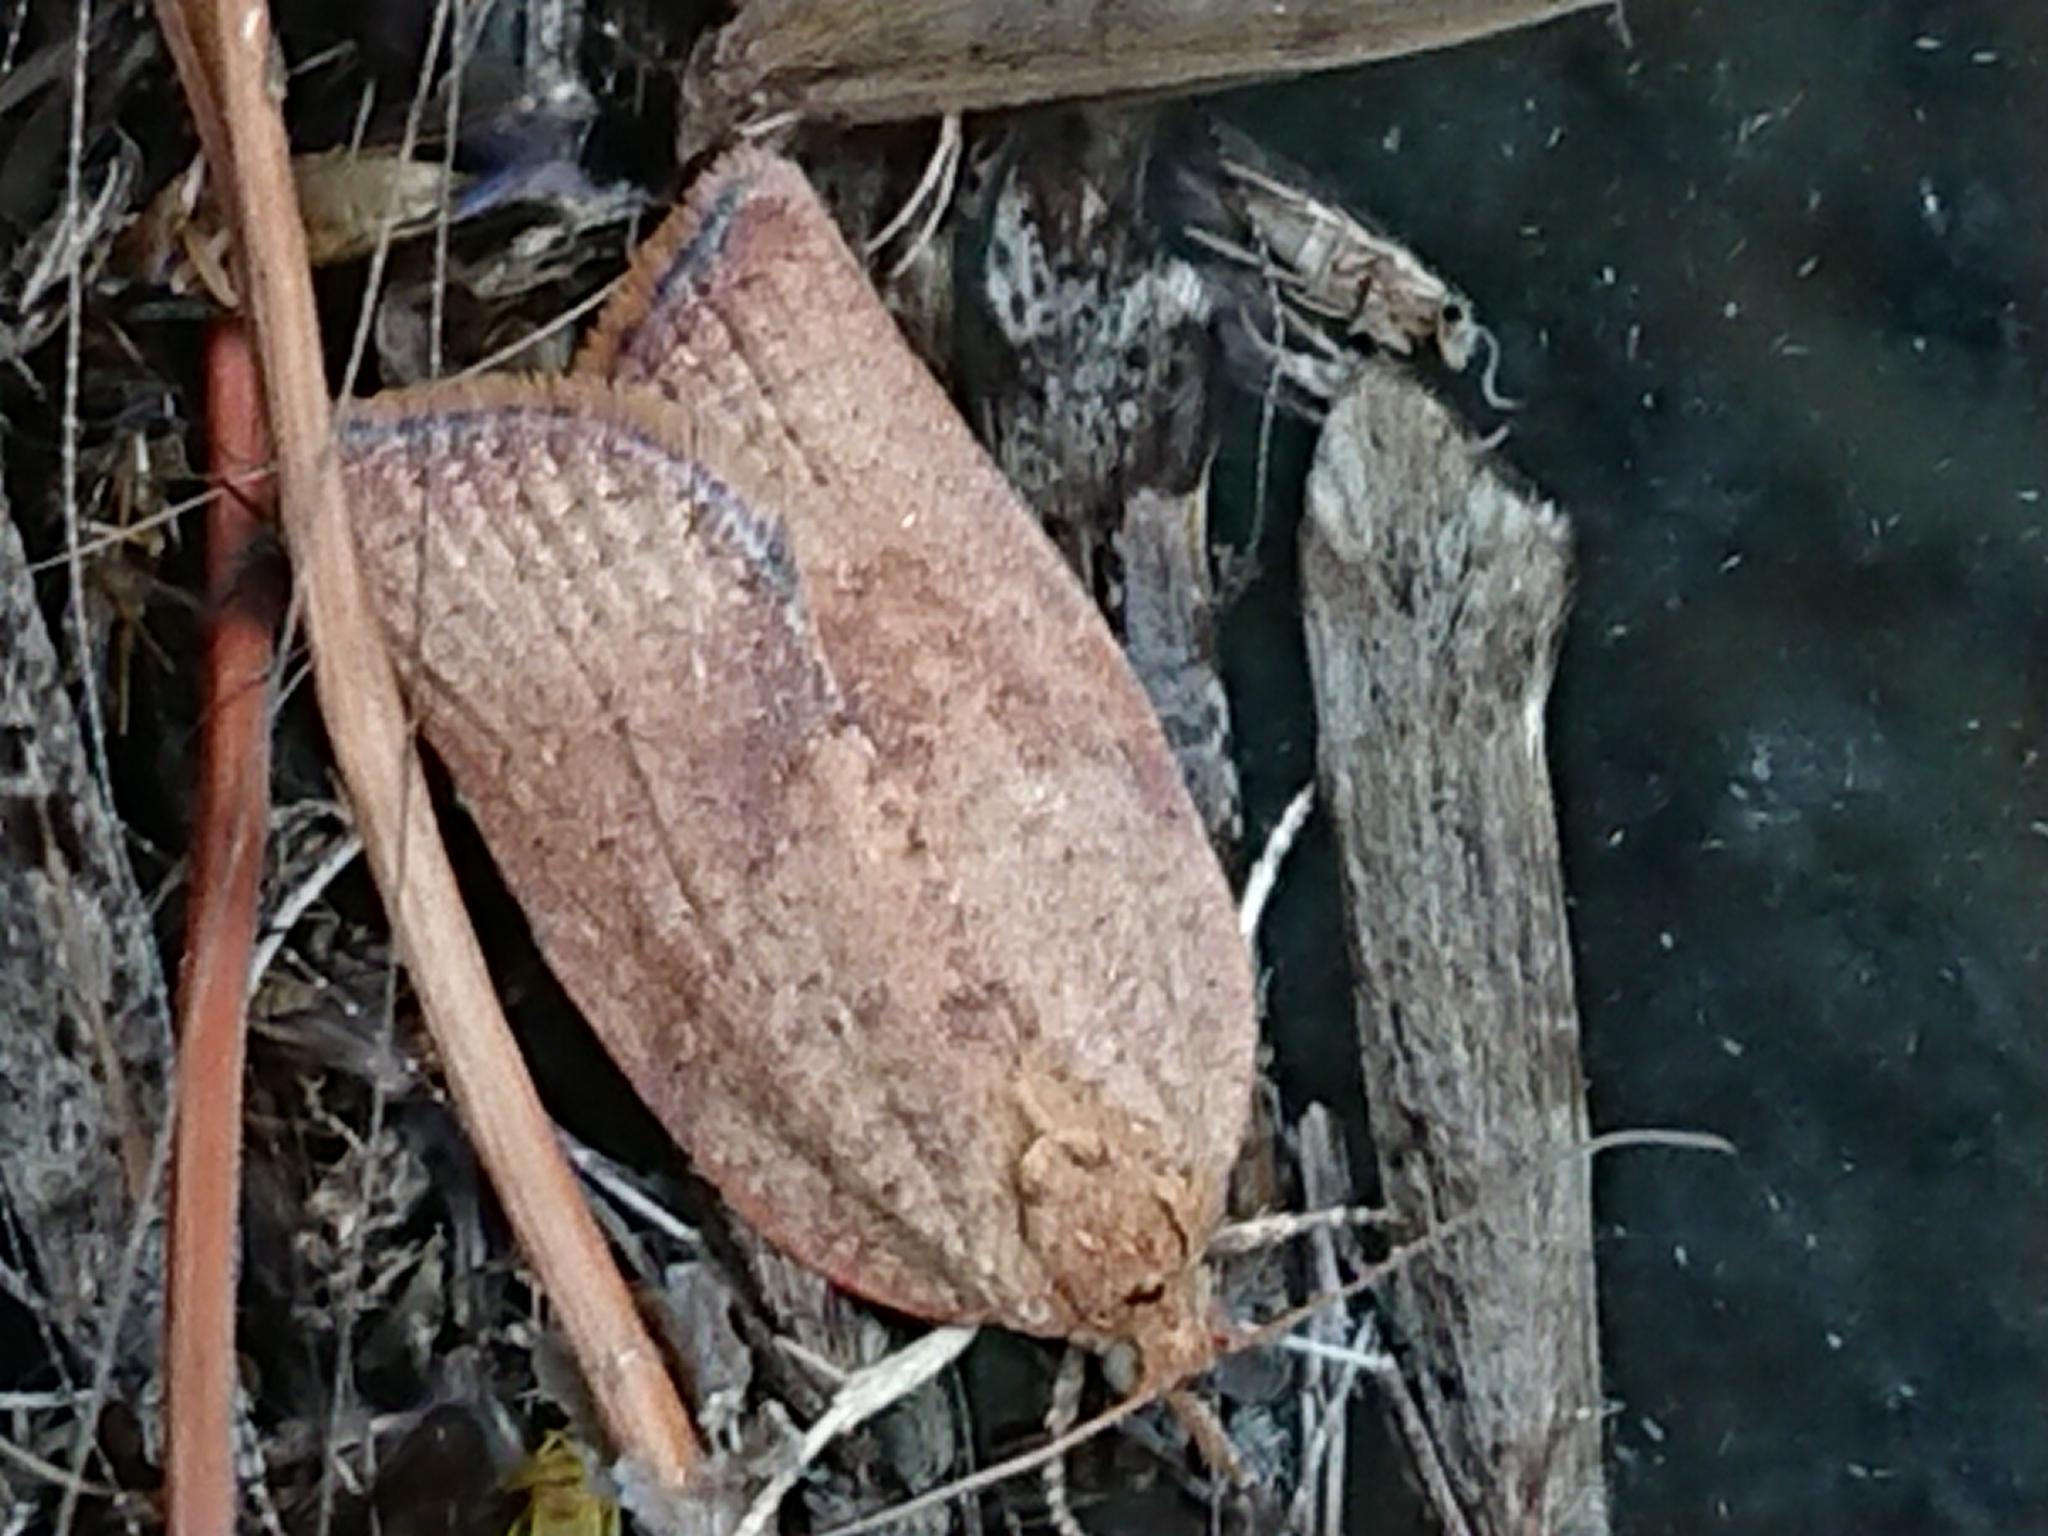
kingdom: Animalia
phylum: Arthropoda
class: Insecta
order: Lepidoptera
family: Tortricidae
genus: Epiphyas
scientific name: Epiphyas postvittana
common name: Light brown apple moth
